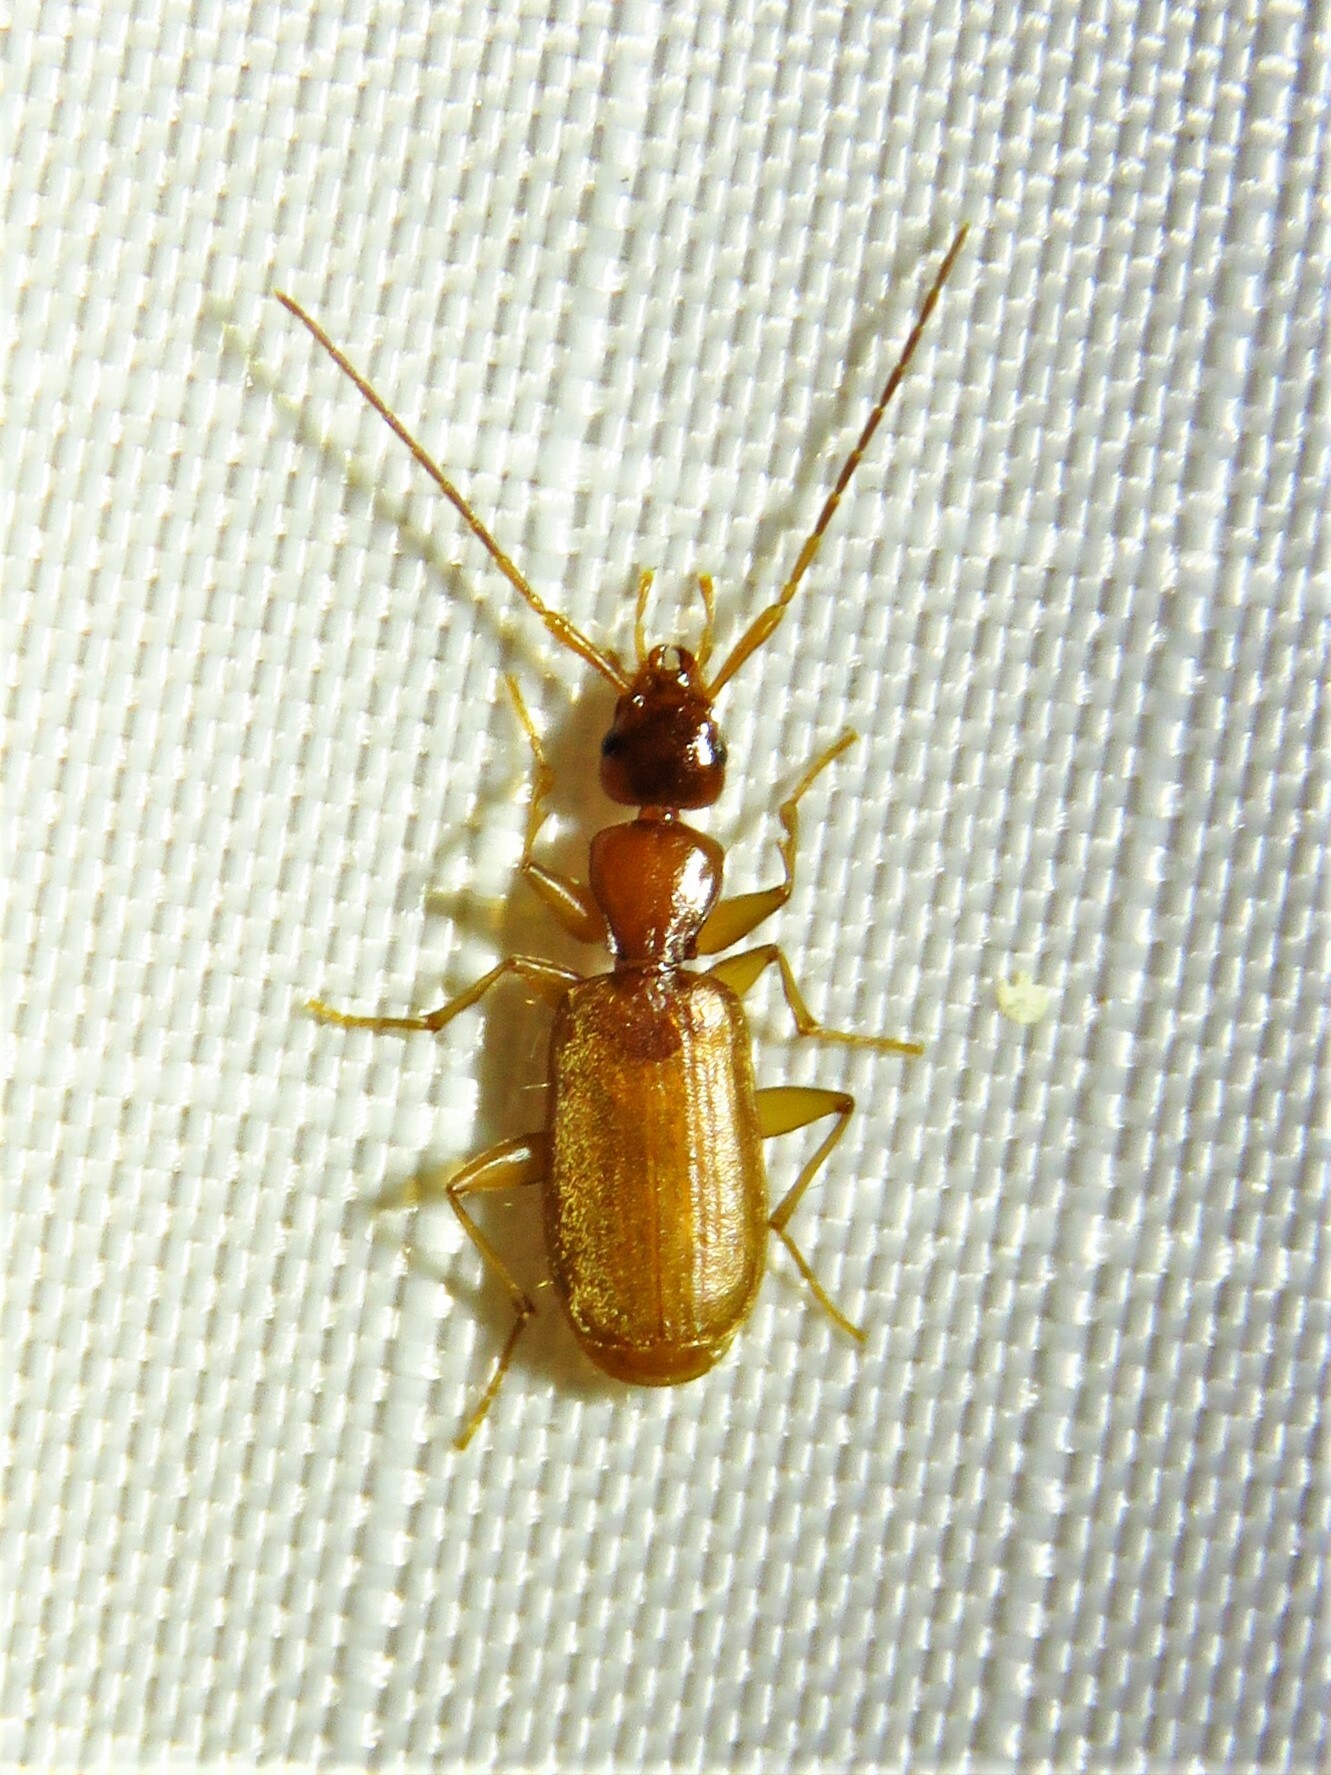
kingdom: Animalia
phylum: Arthropoda
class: Insecta
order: Coleoptera
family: Carabidae
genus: Zuphioides
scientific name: Zuphioides longicolle
